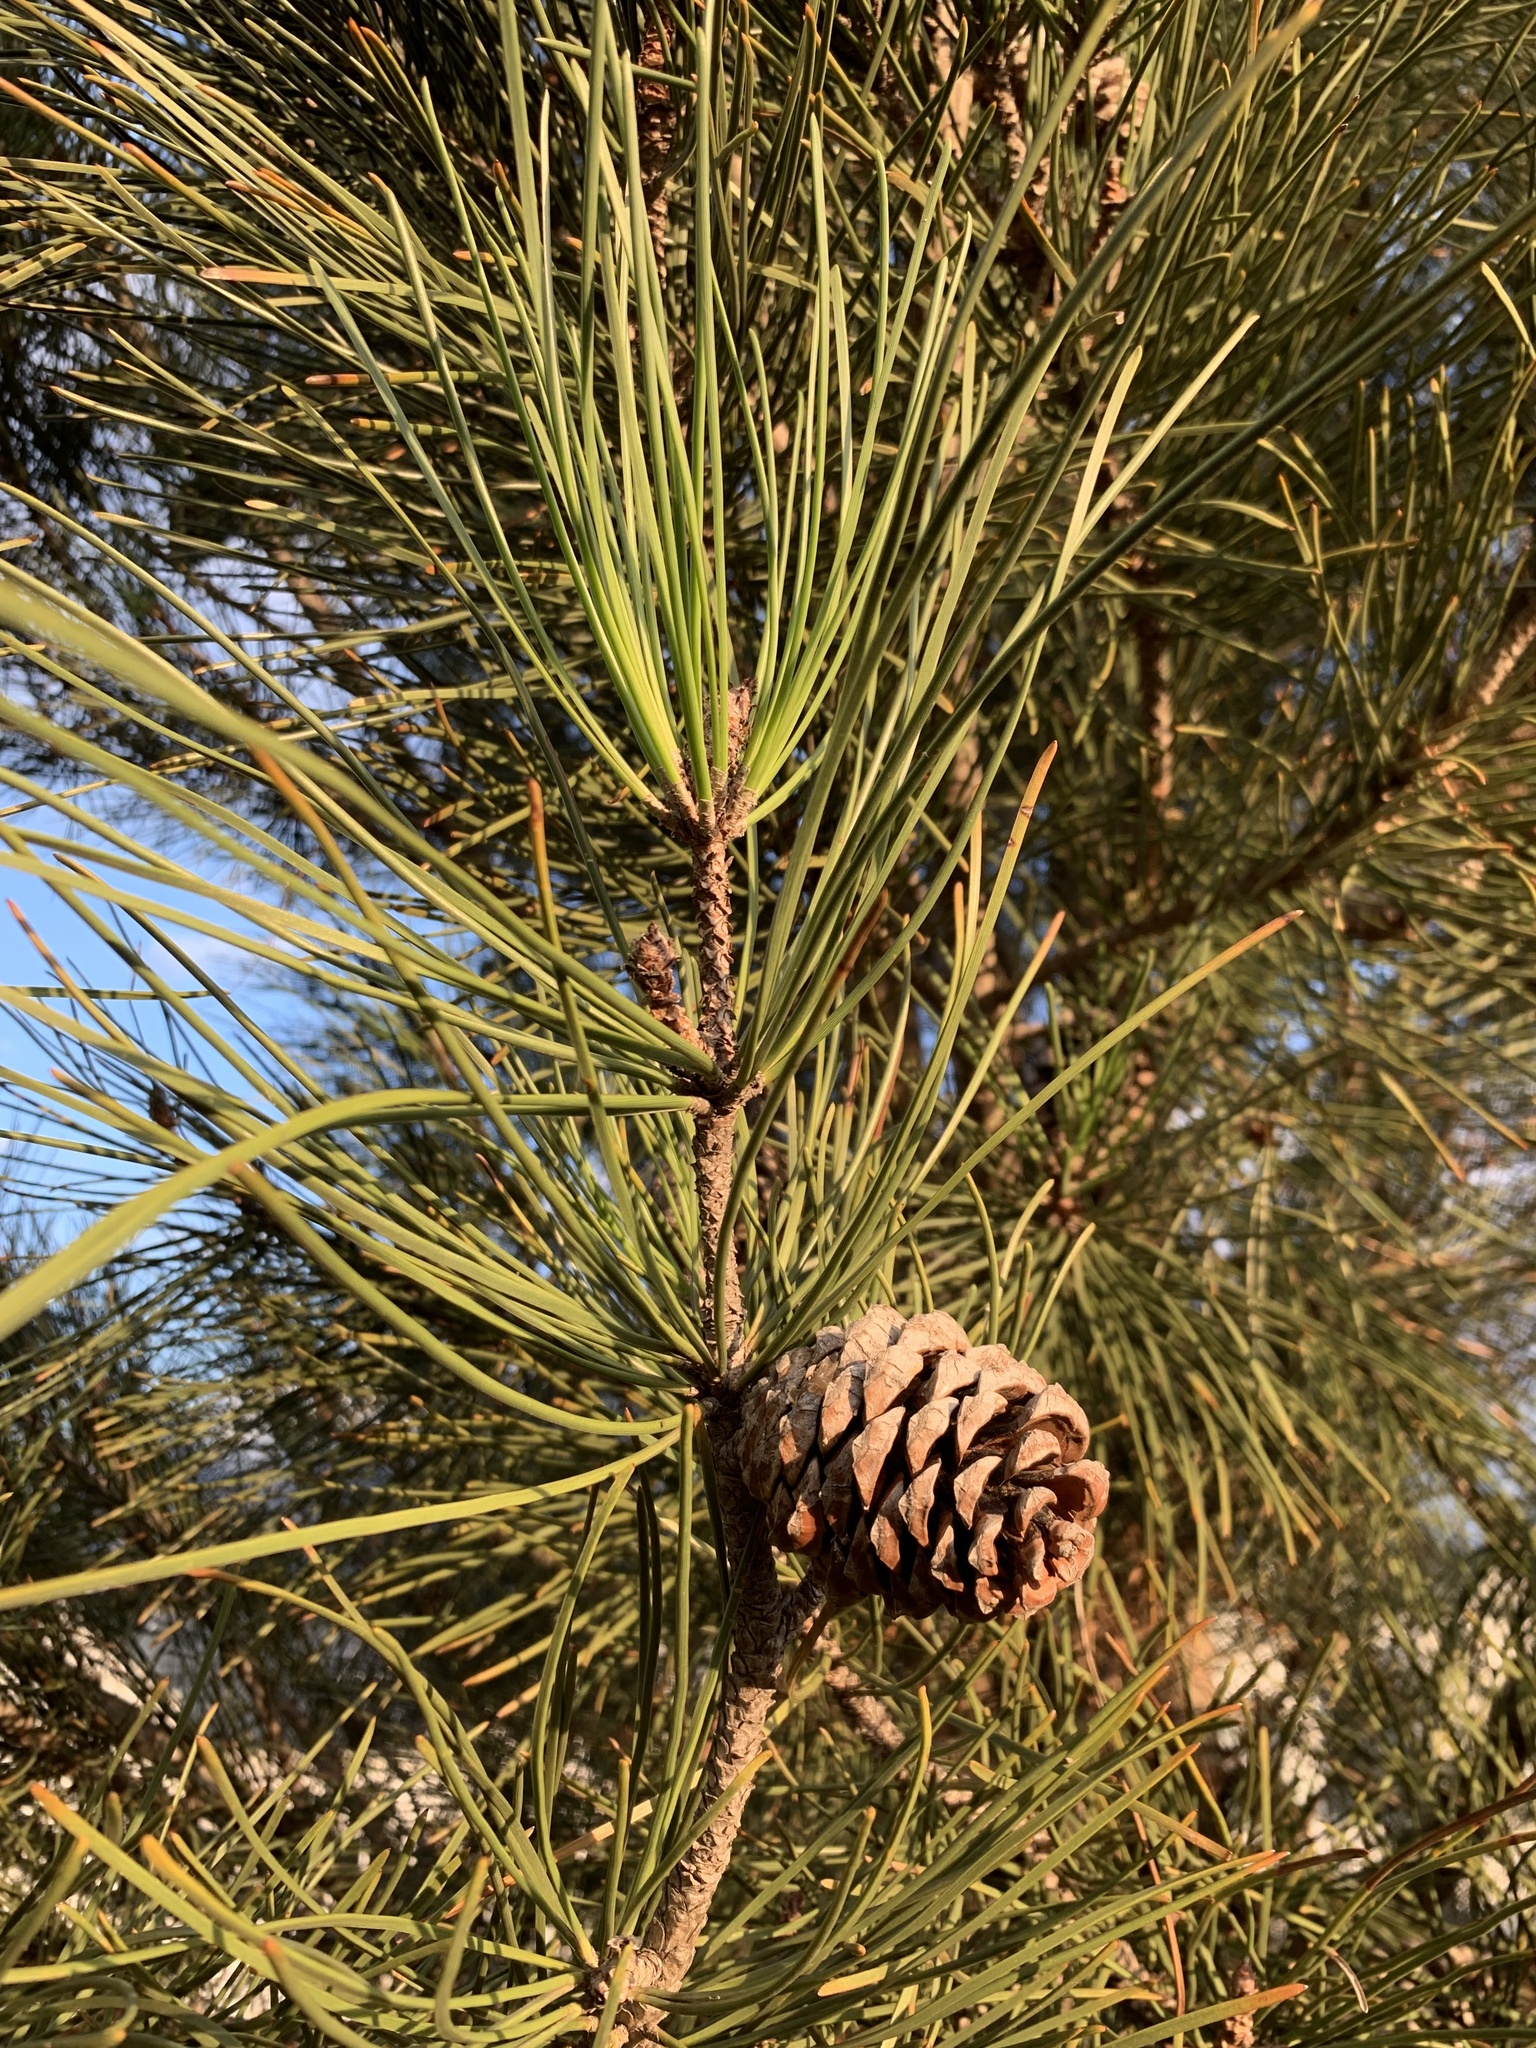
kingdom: Plantae
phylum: Tracheophyta
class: Pinopsida
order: Pinales
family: Pinaceae
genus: Pinus
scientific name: Pinus pinaster
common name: Maritime pine
